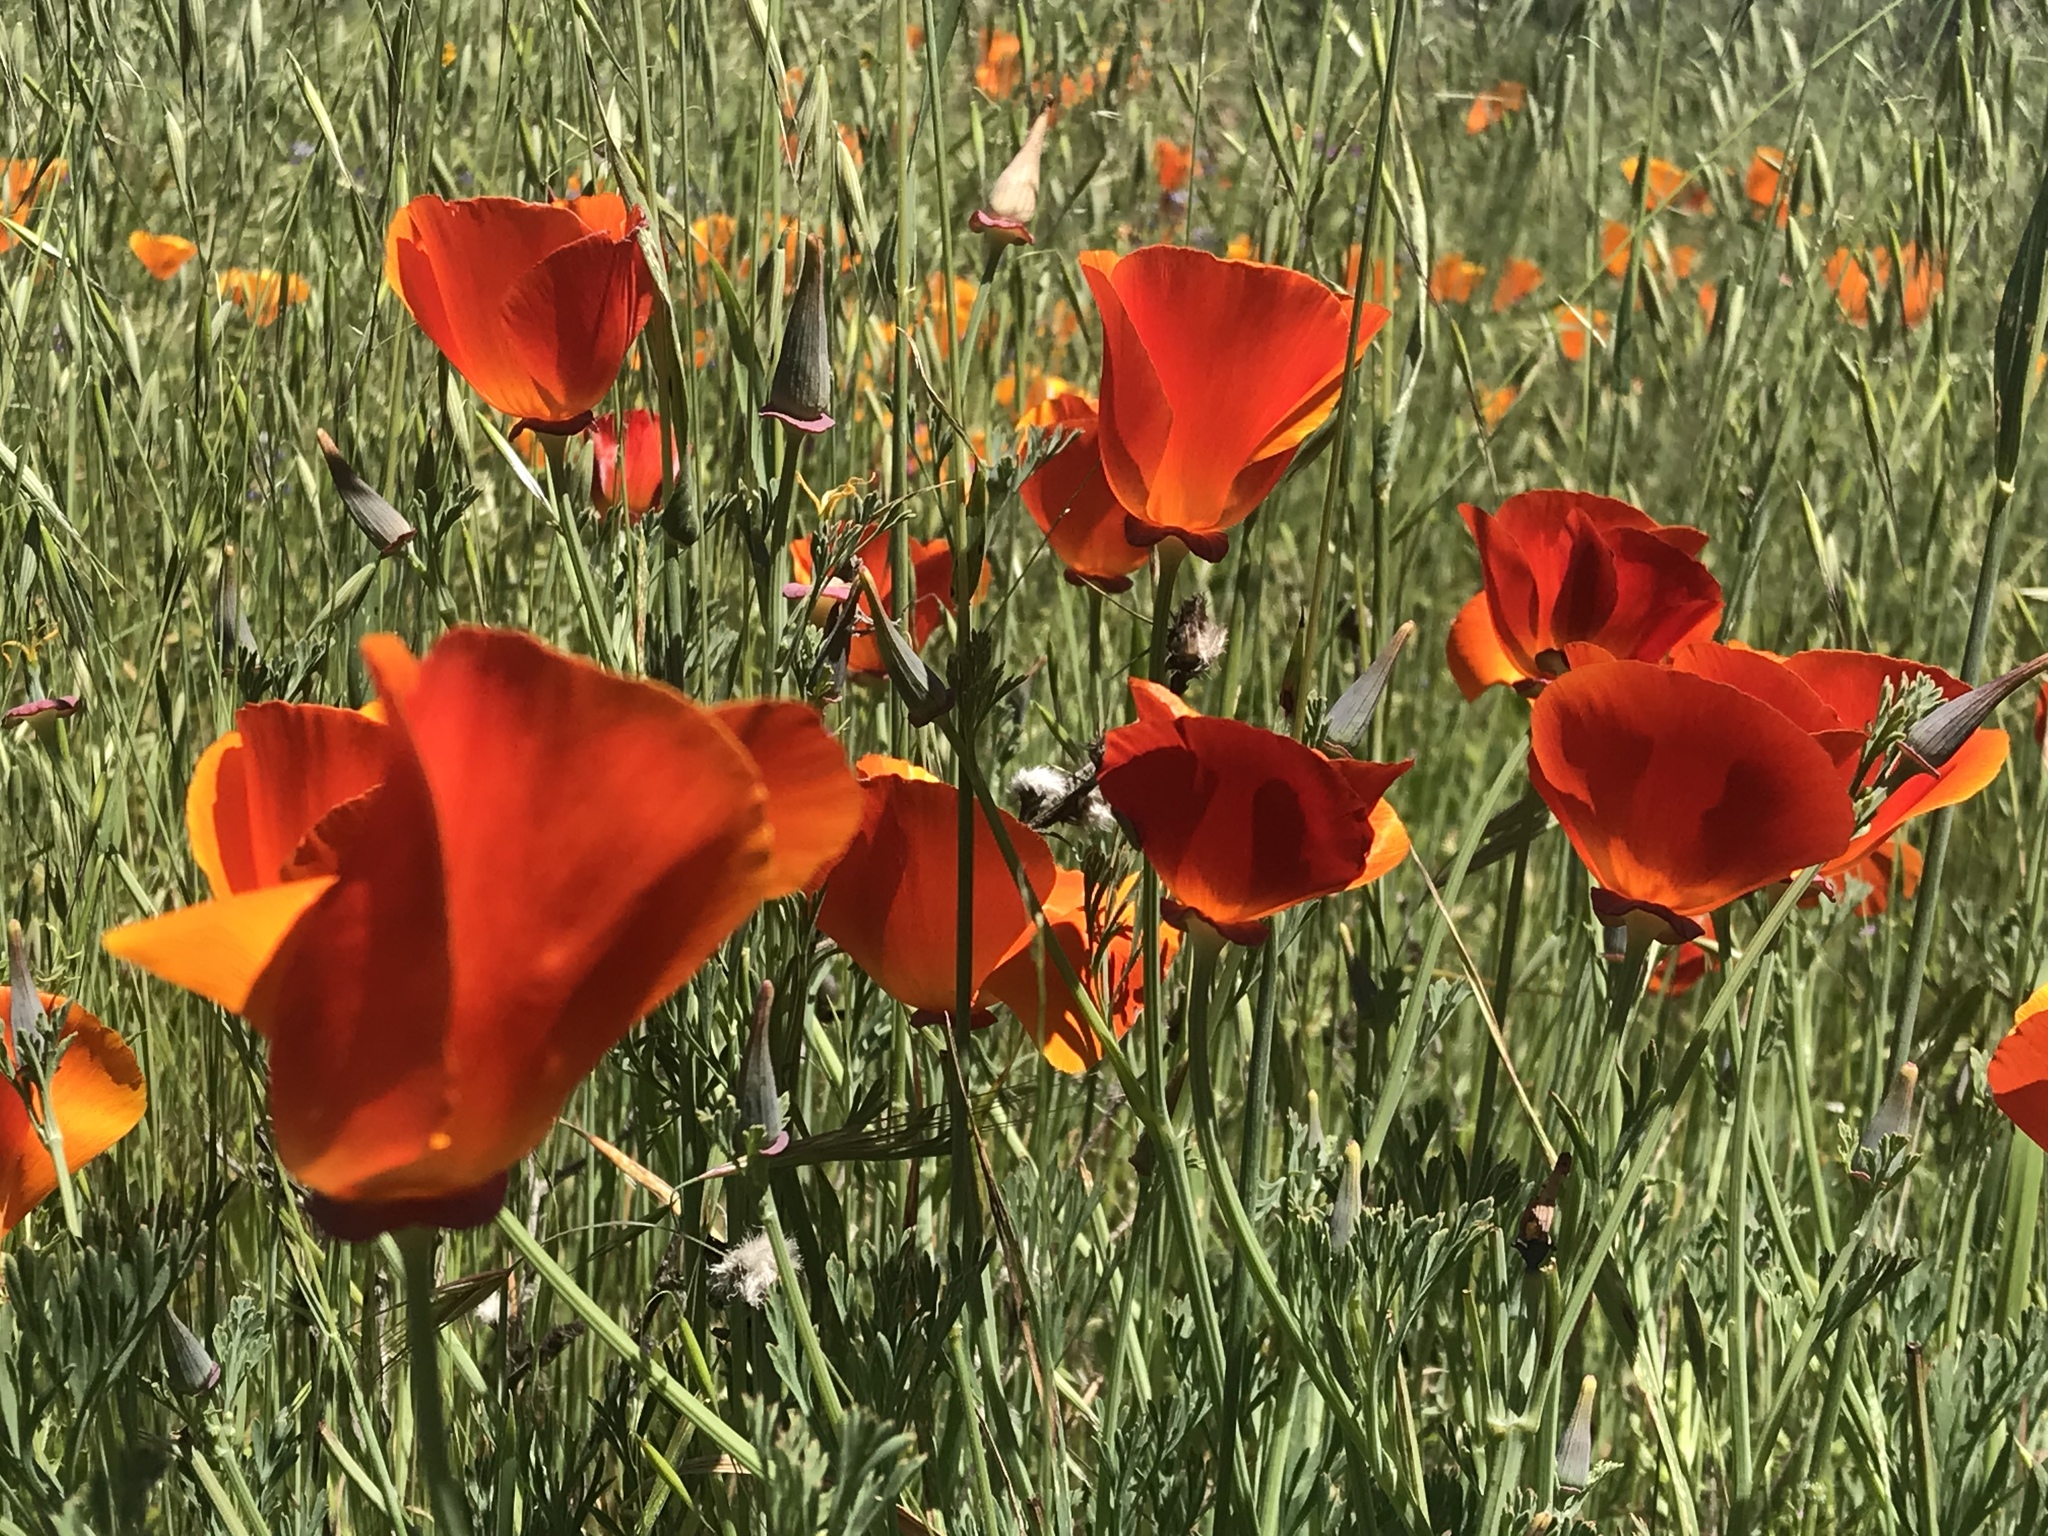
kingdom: Plantae
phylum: Tracheophyta
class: Magnoliopsida
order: Ranunculales
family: Papaveraceae
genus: Eschscholzia
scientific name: Eschscholzia californica
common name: California poppy
